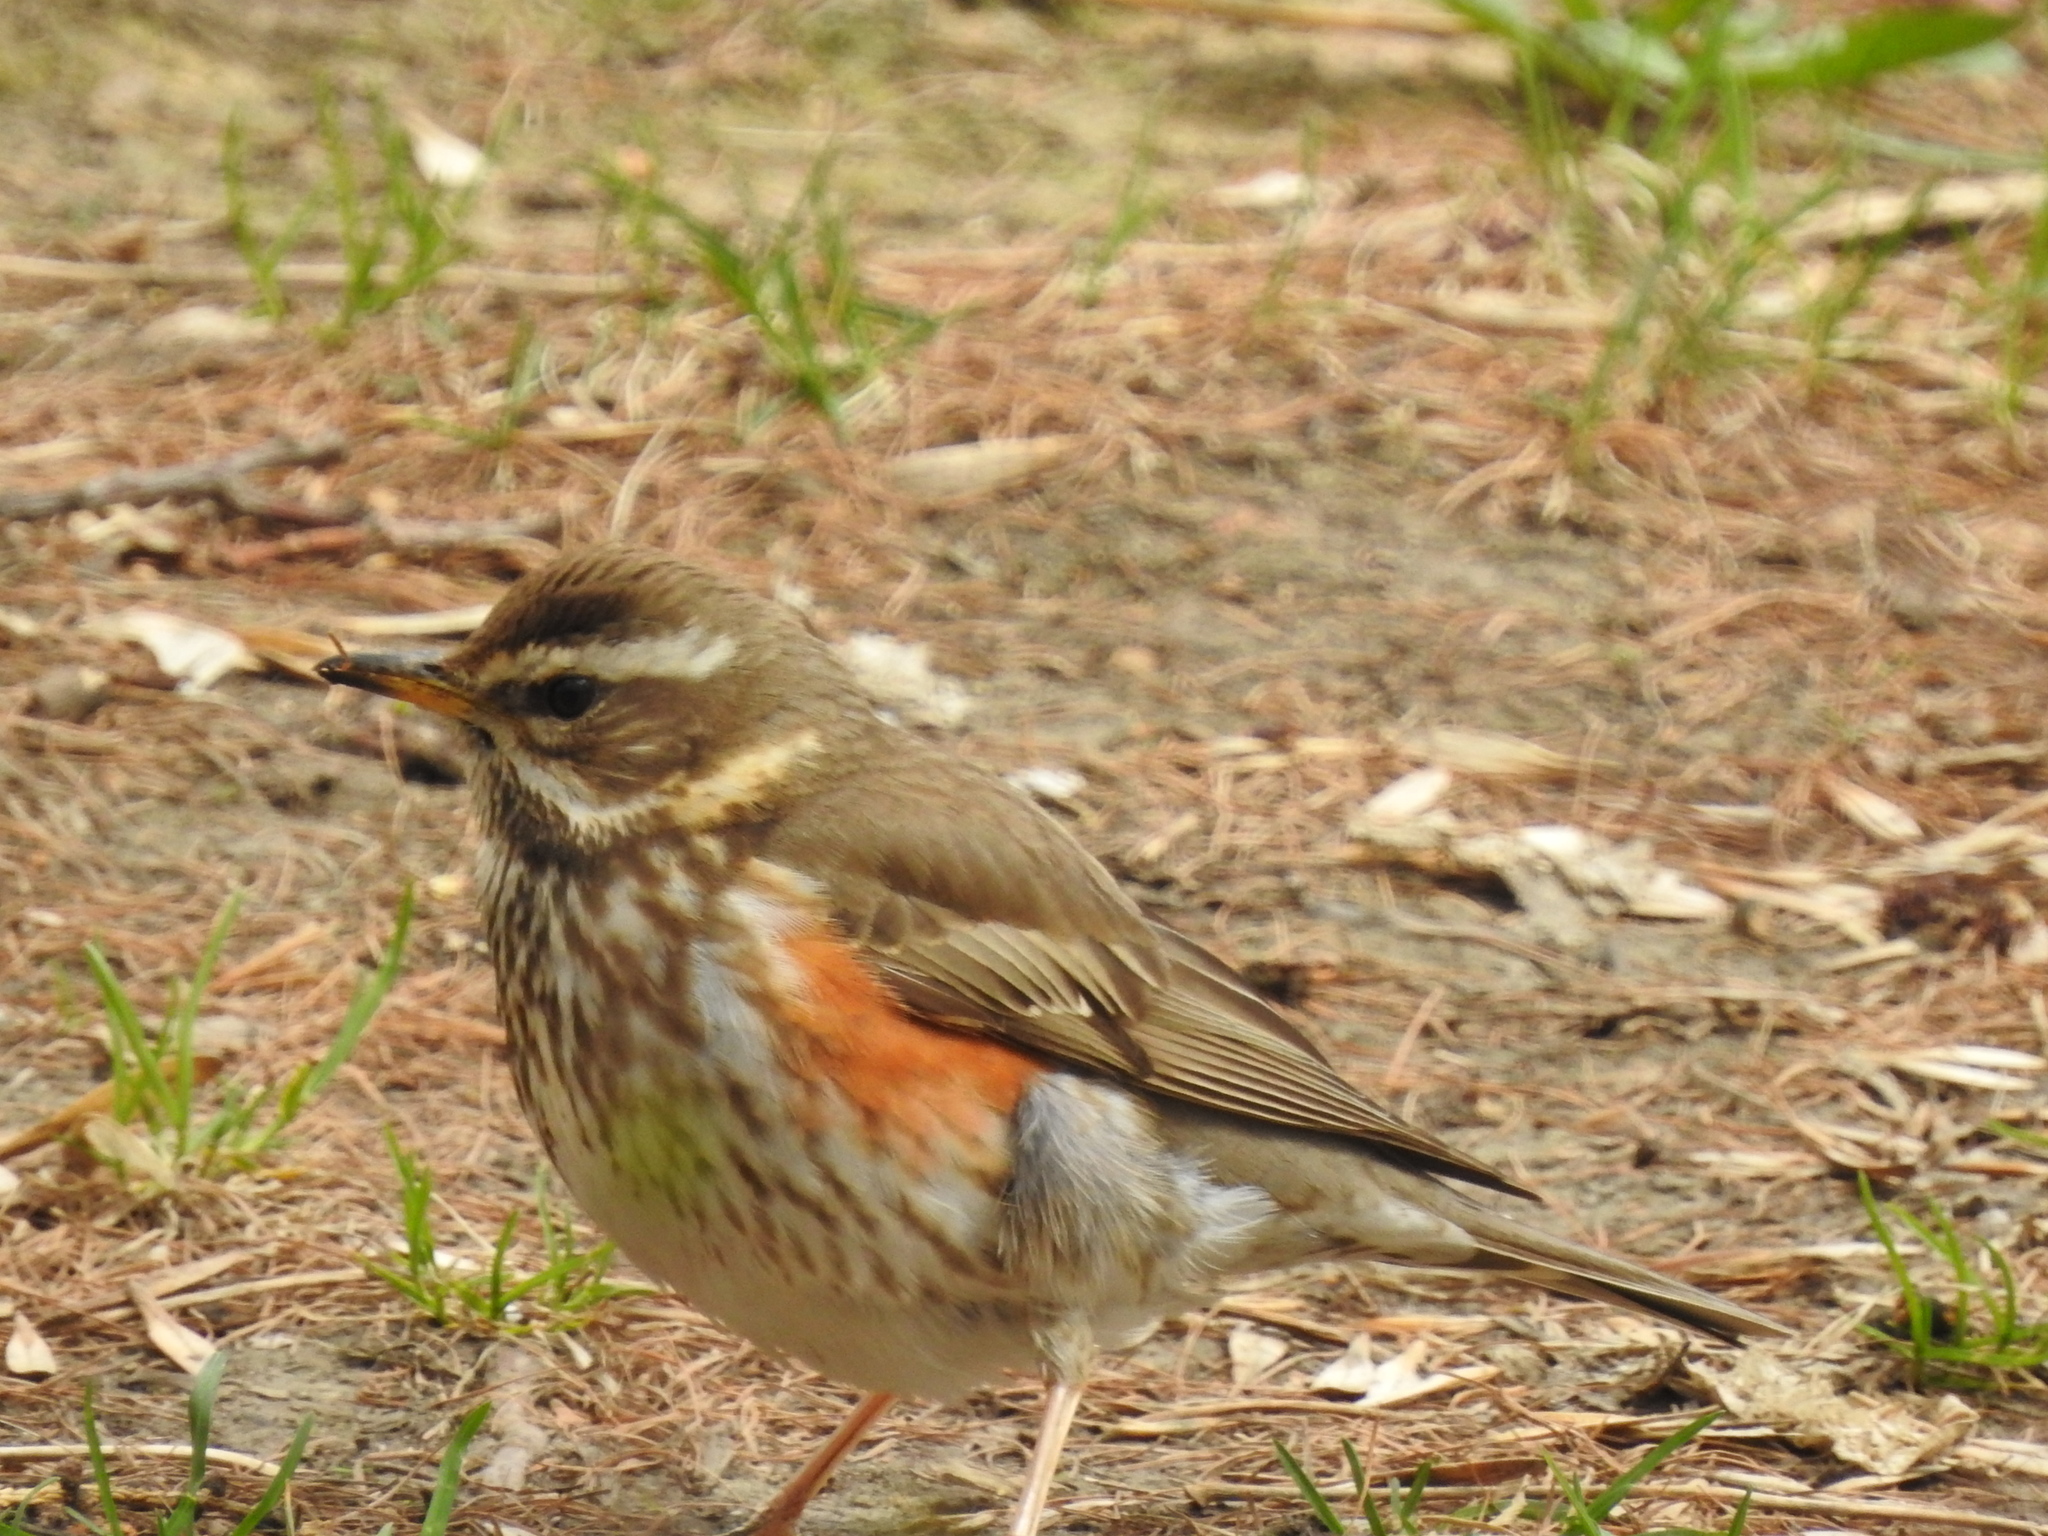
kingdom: Animalia
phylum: Chordata
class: Aves
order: Passeriformes
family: Turdidae
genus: Turdus
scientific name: Turdus iliacus
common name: Redwing
